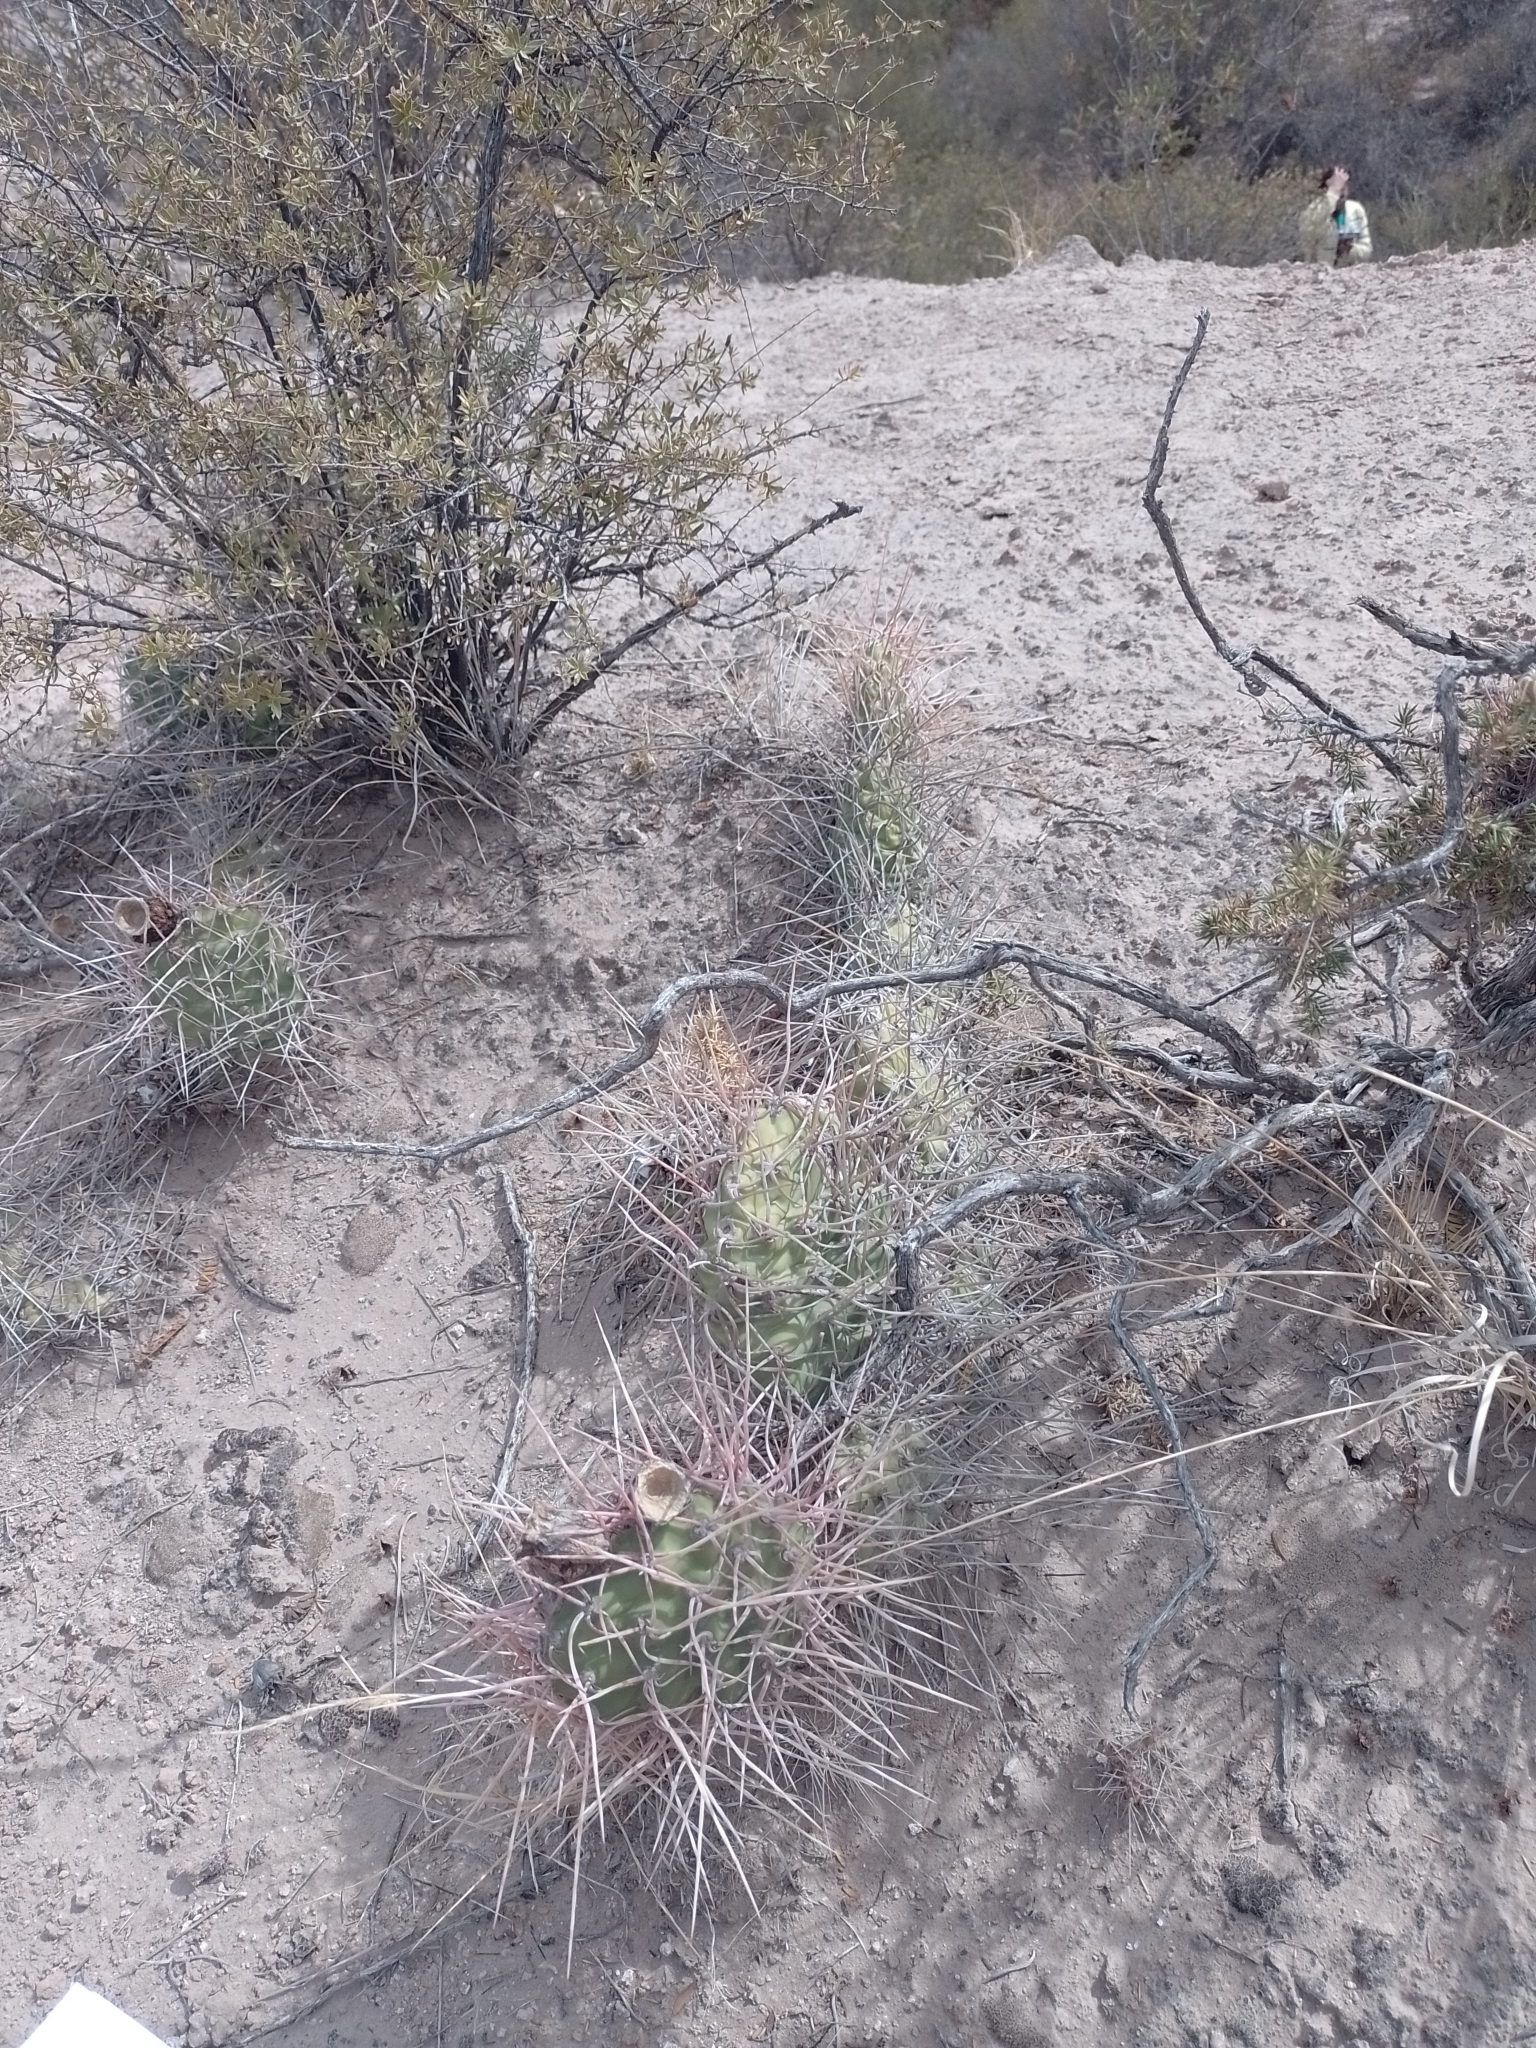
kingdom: Plantae
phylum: Tracheophyta
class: Magnoliopsida
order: Caryophyllales
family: Cactaceae
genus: Opuntia
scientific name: Opuntia sulphurea
